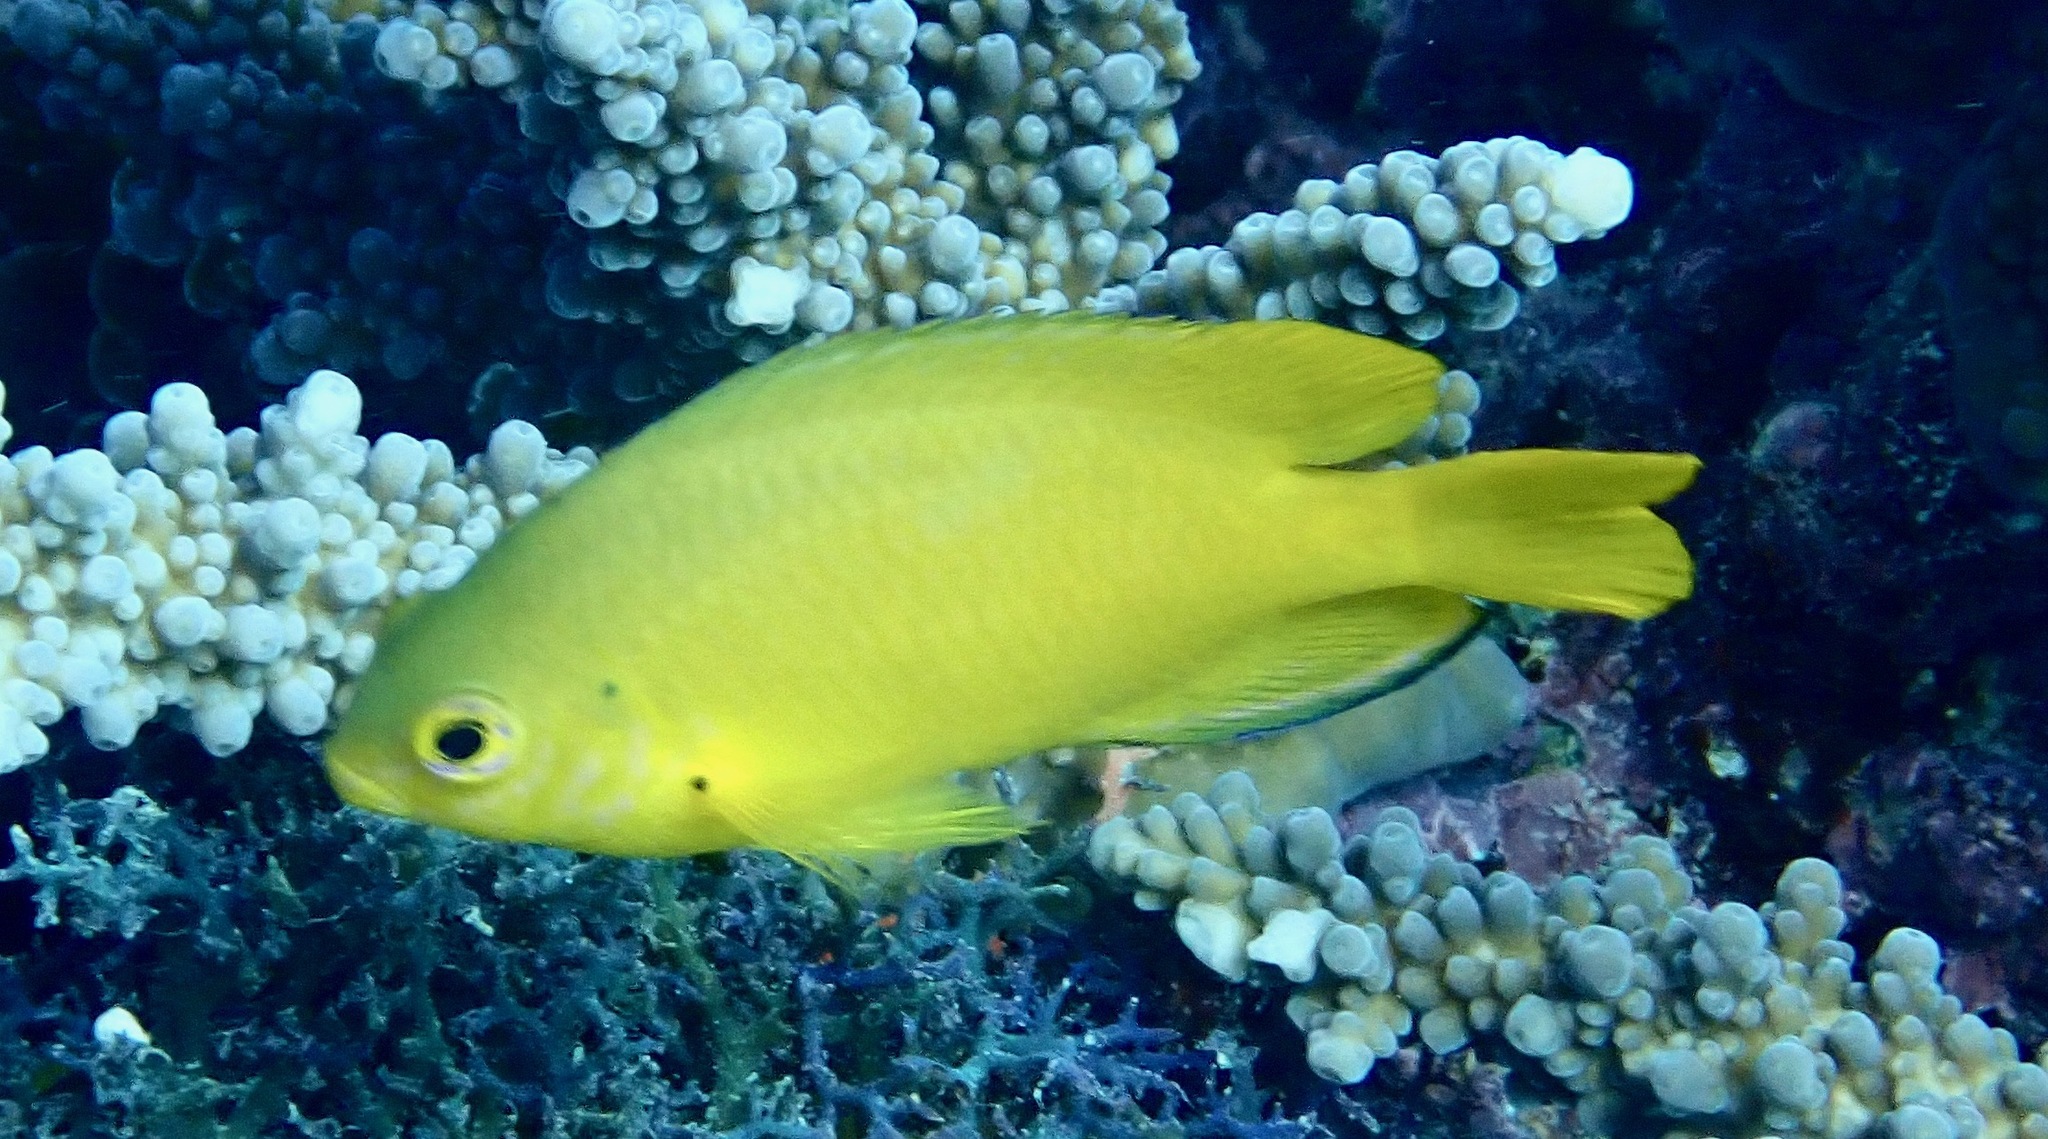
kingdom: Animalia
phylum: Chordata
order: Perciformes
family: Pomacentridae
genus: Pomacentrus
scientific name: Pomacentrus moluccensis
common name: Lemon damsel
